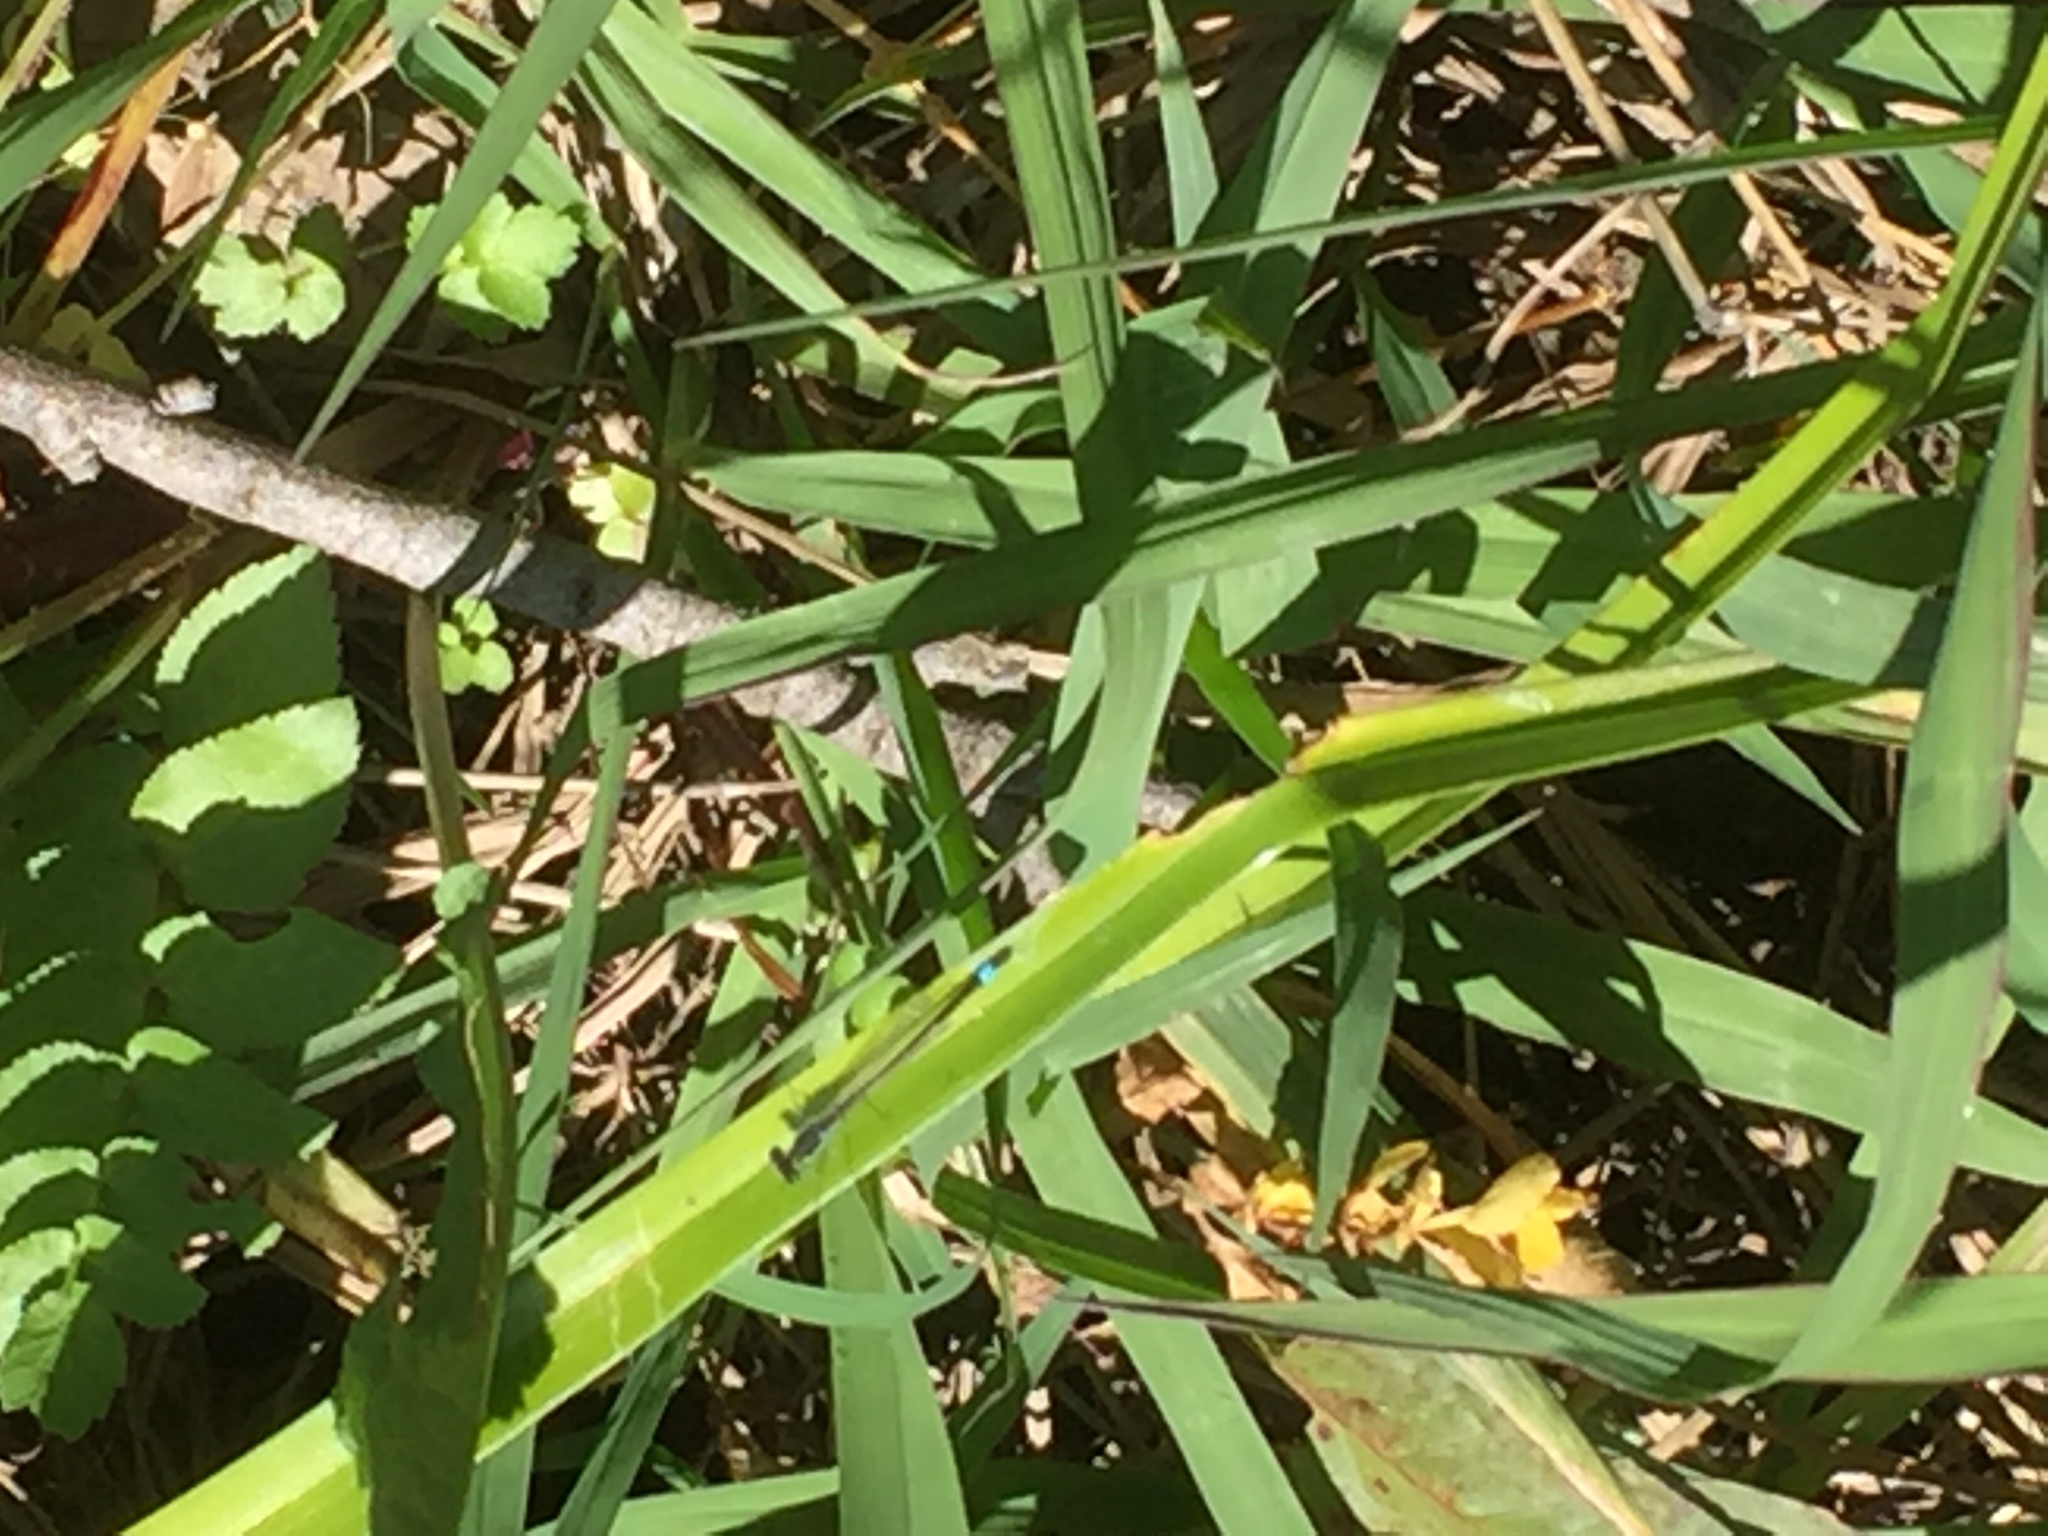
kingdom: Animalia
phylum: Arthropoda
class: Insecta
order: Odonata
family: Coenagrionidae
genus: Ischnura
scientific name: Ischnura graellsii
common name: Iberian bluetail
